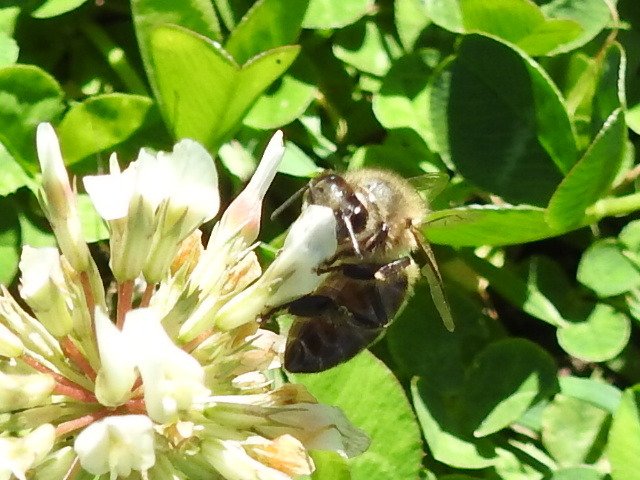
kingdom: Animalia
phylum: Arthropoda
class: Insecta
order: Hymenoptera
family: Apidae
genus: Apis
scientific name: Apis mellifera
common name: Honey bee
